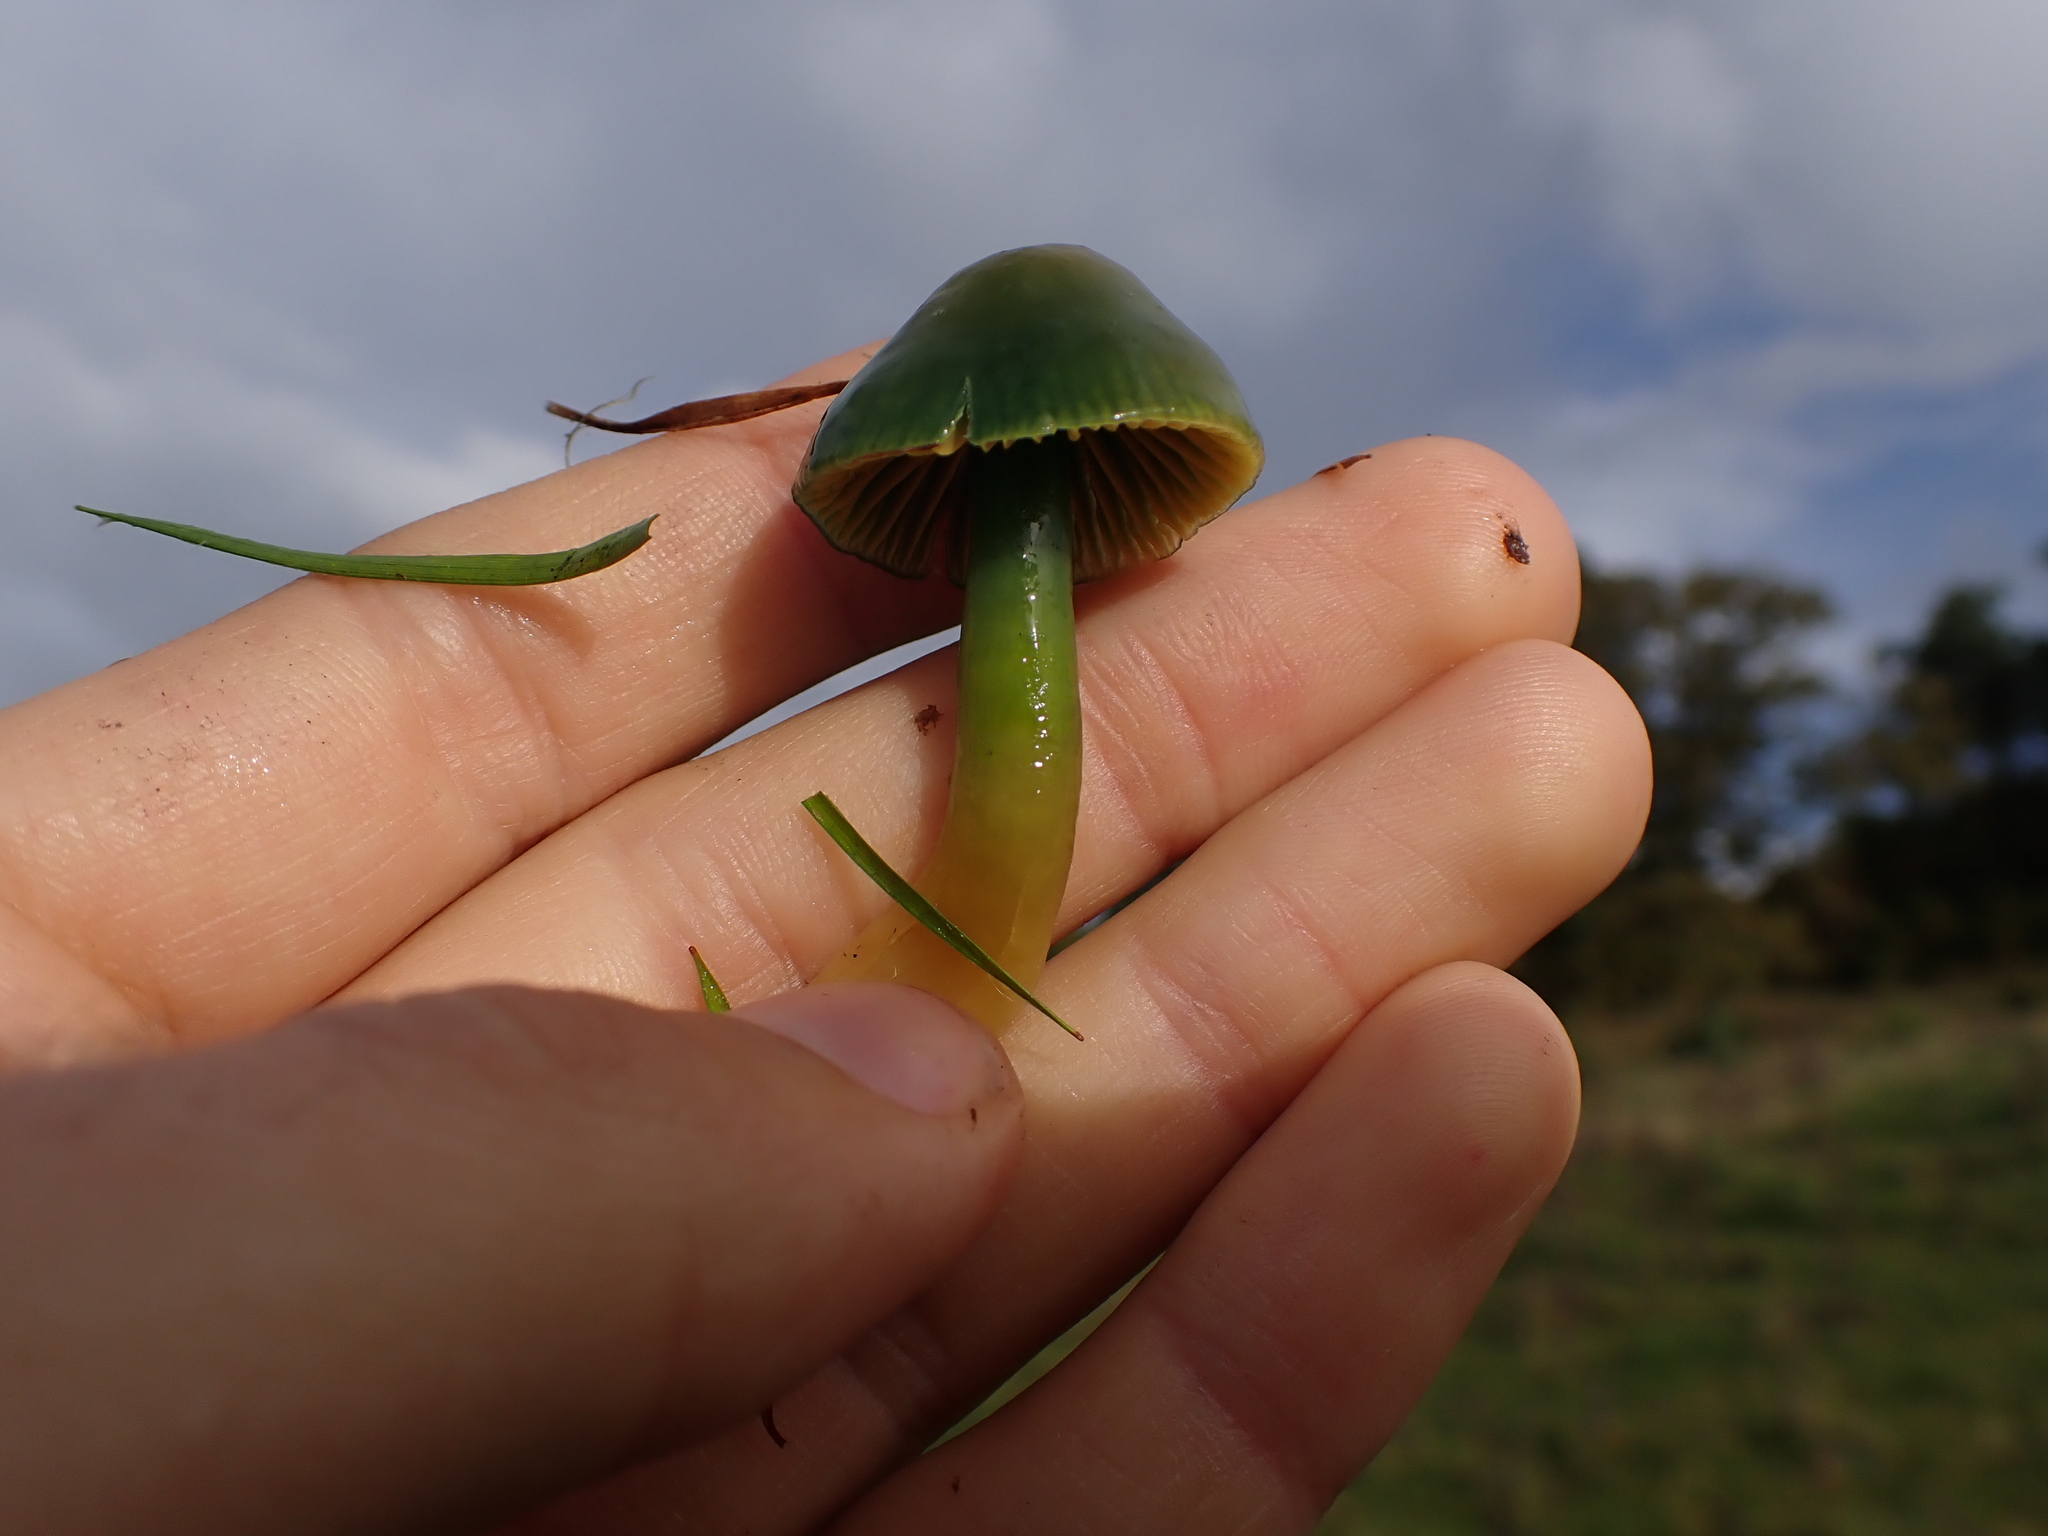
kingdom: Fungi
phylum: Basidiomycota
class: Agaricomycetes
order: Agaricales
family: Hygrophoraceae
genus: Gliophorus
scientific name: Gliophorus psittacinus
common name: Parrot wax-cap
